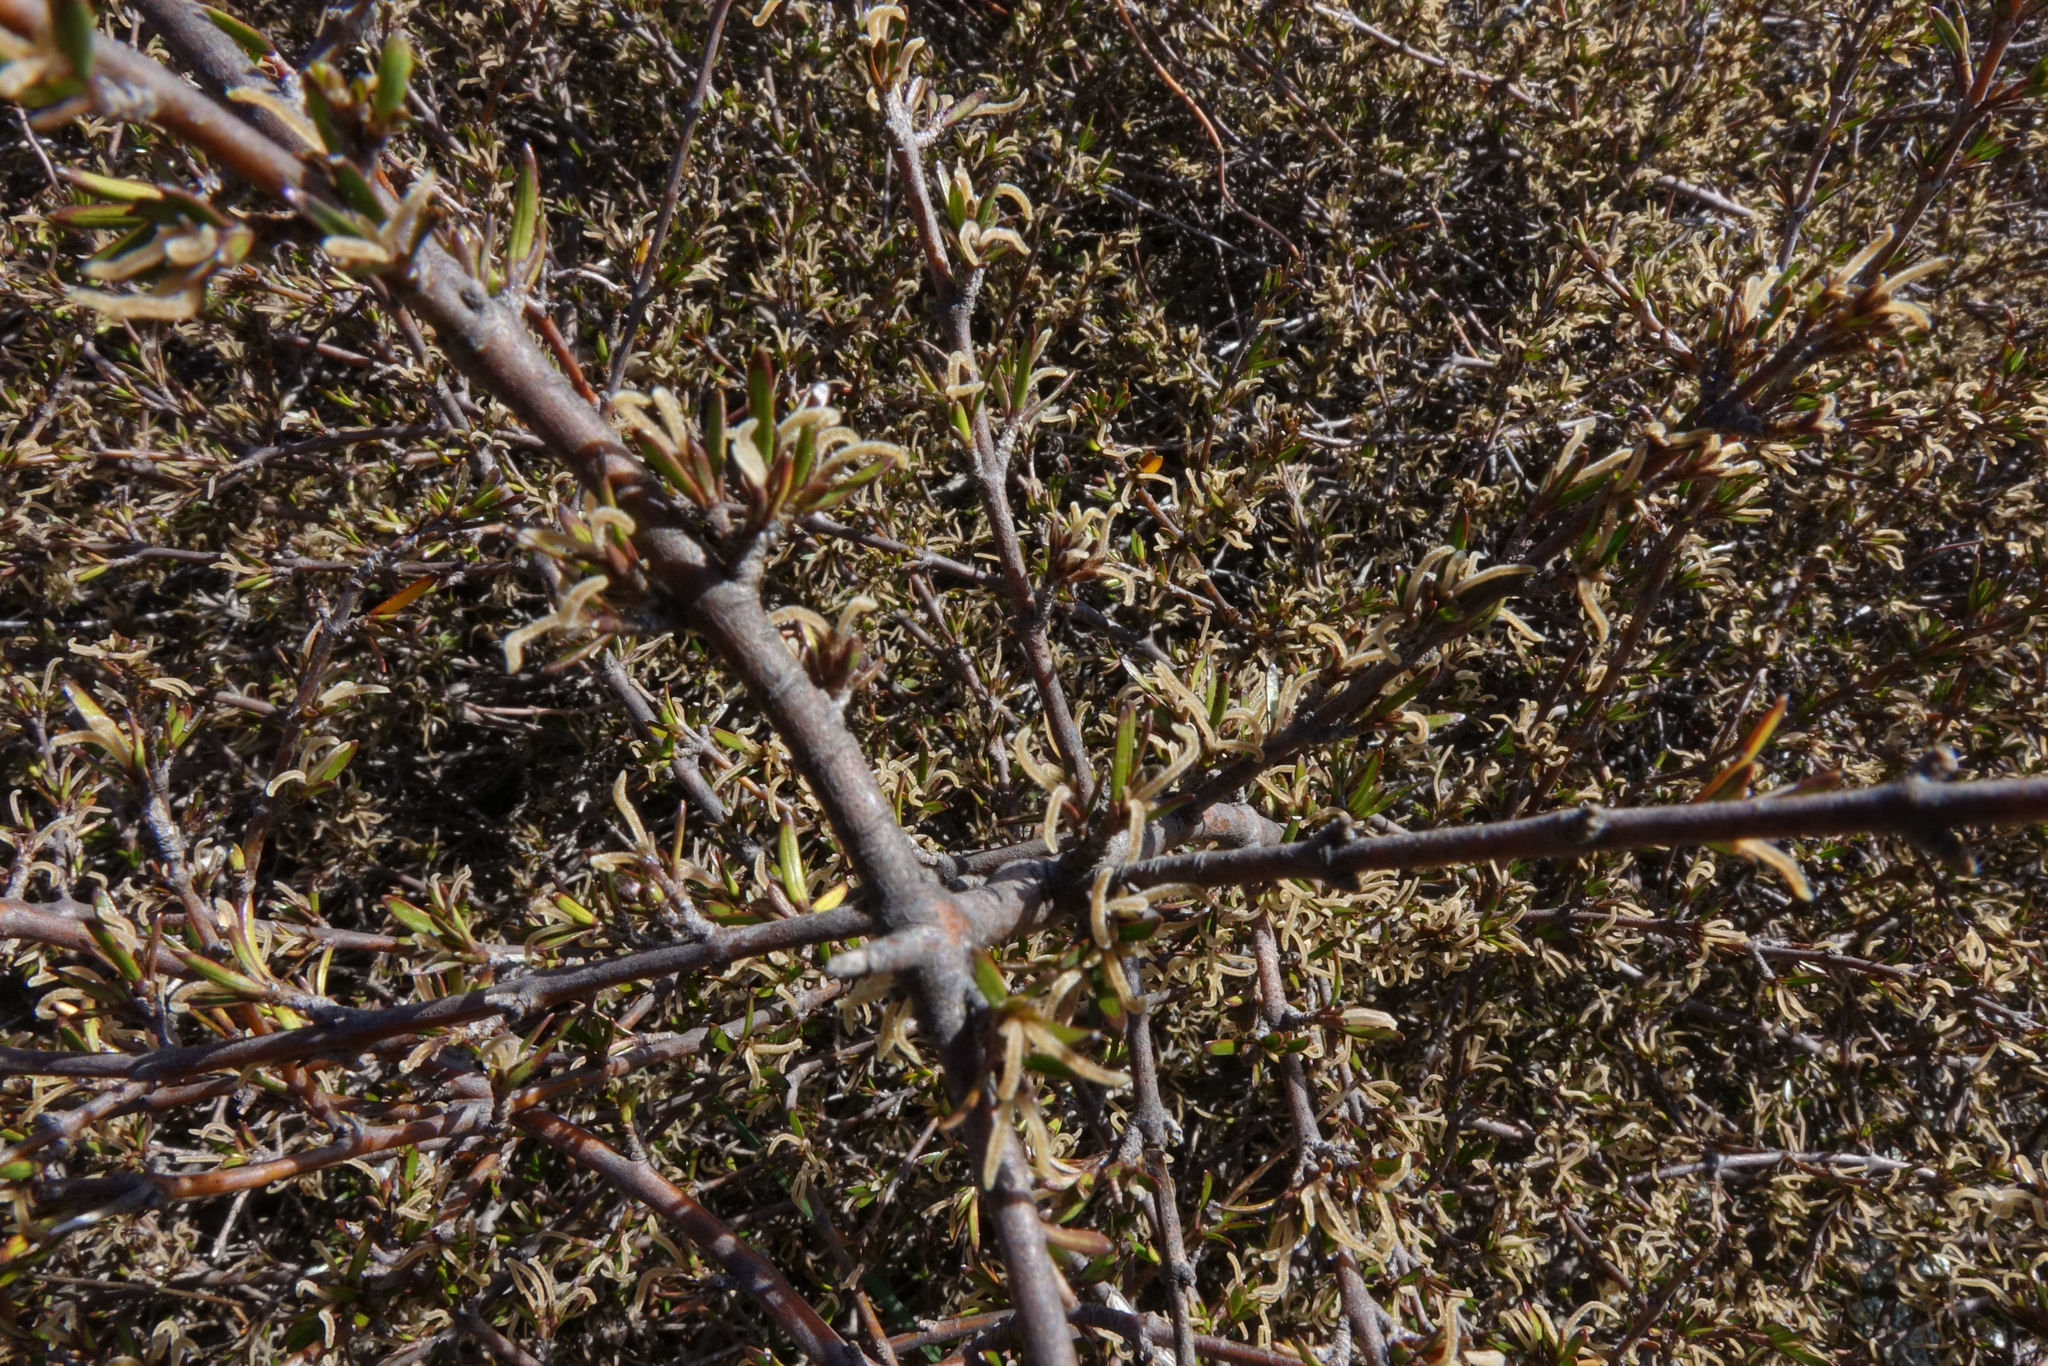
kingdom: Plantae
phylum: Tracheophyta
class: Magnoliopsida
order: Gentianales
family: Rubiaceae
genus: Coprosma
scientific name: Coprosma intertexta
